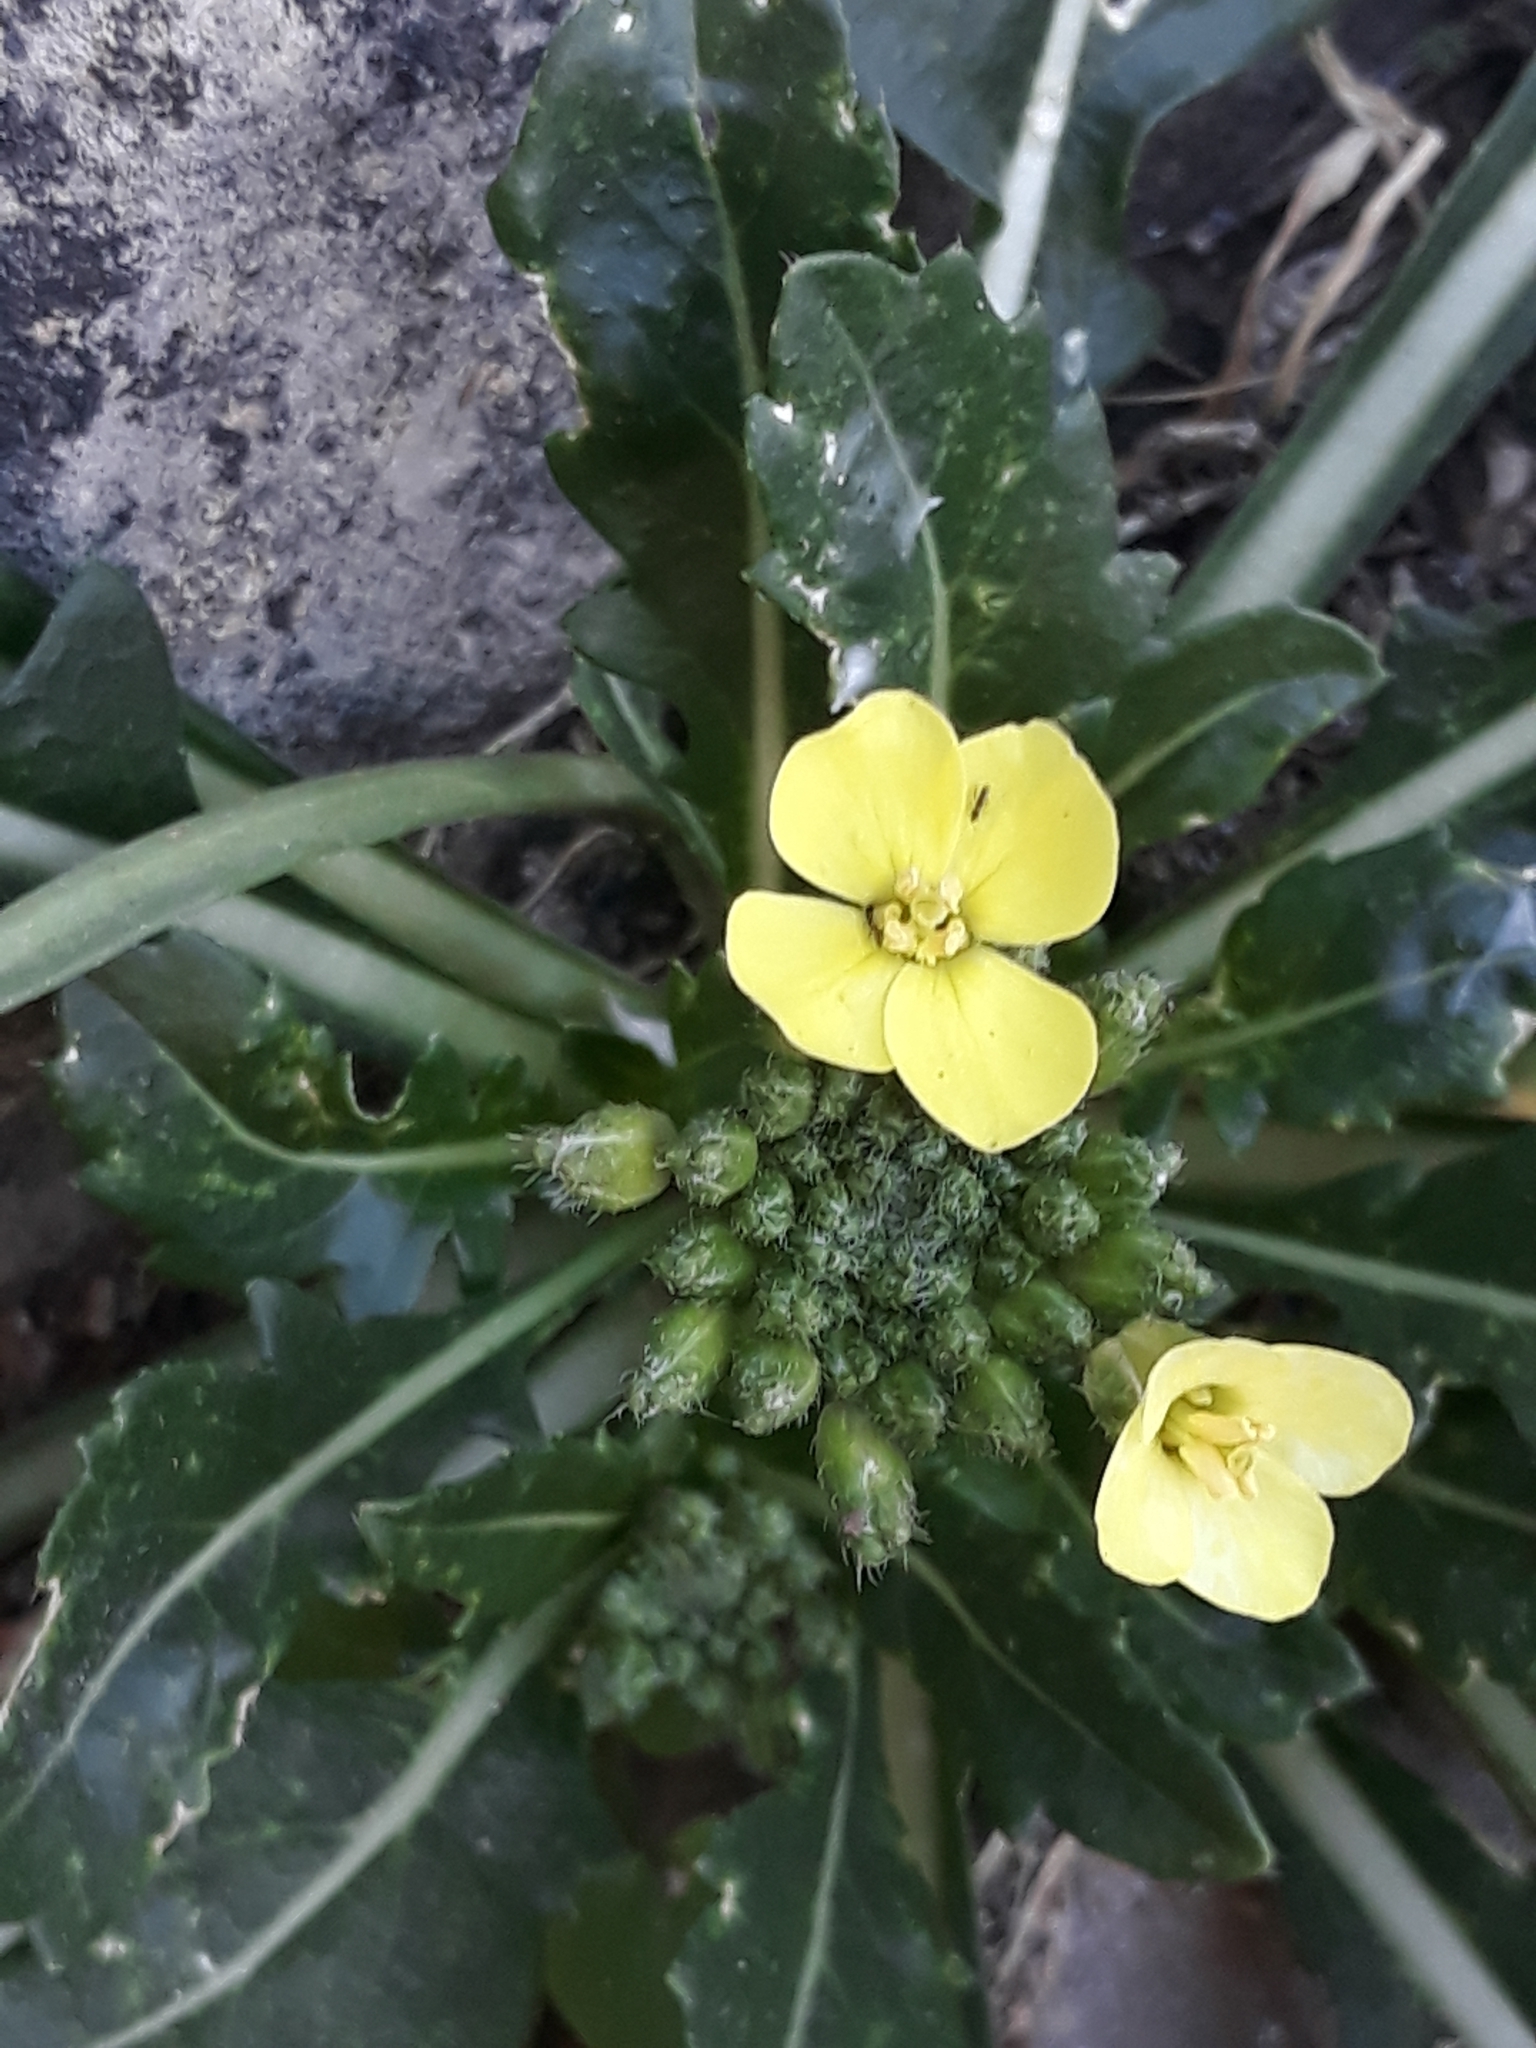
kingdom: Plantae
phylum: Tracheophyta
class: Magnoliopsida
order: Brassicales
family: Brassicaceae
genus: Brassica
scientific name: Brassica gravinae
